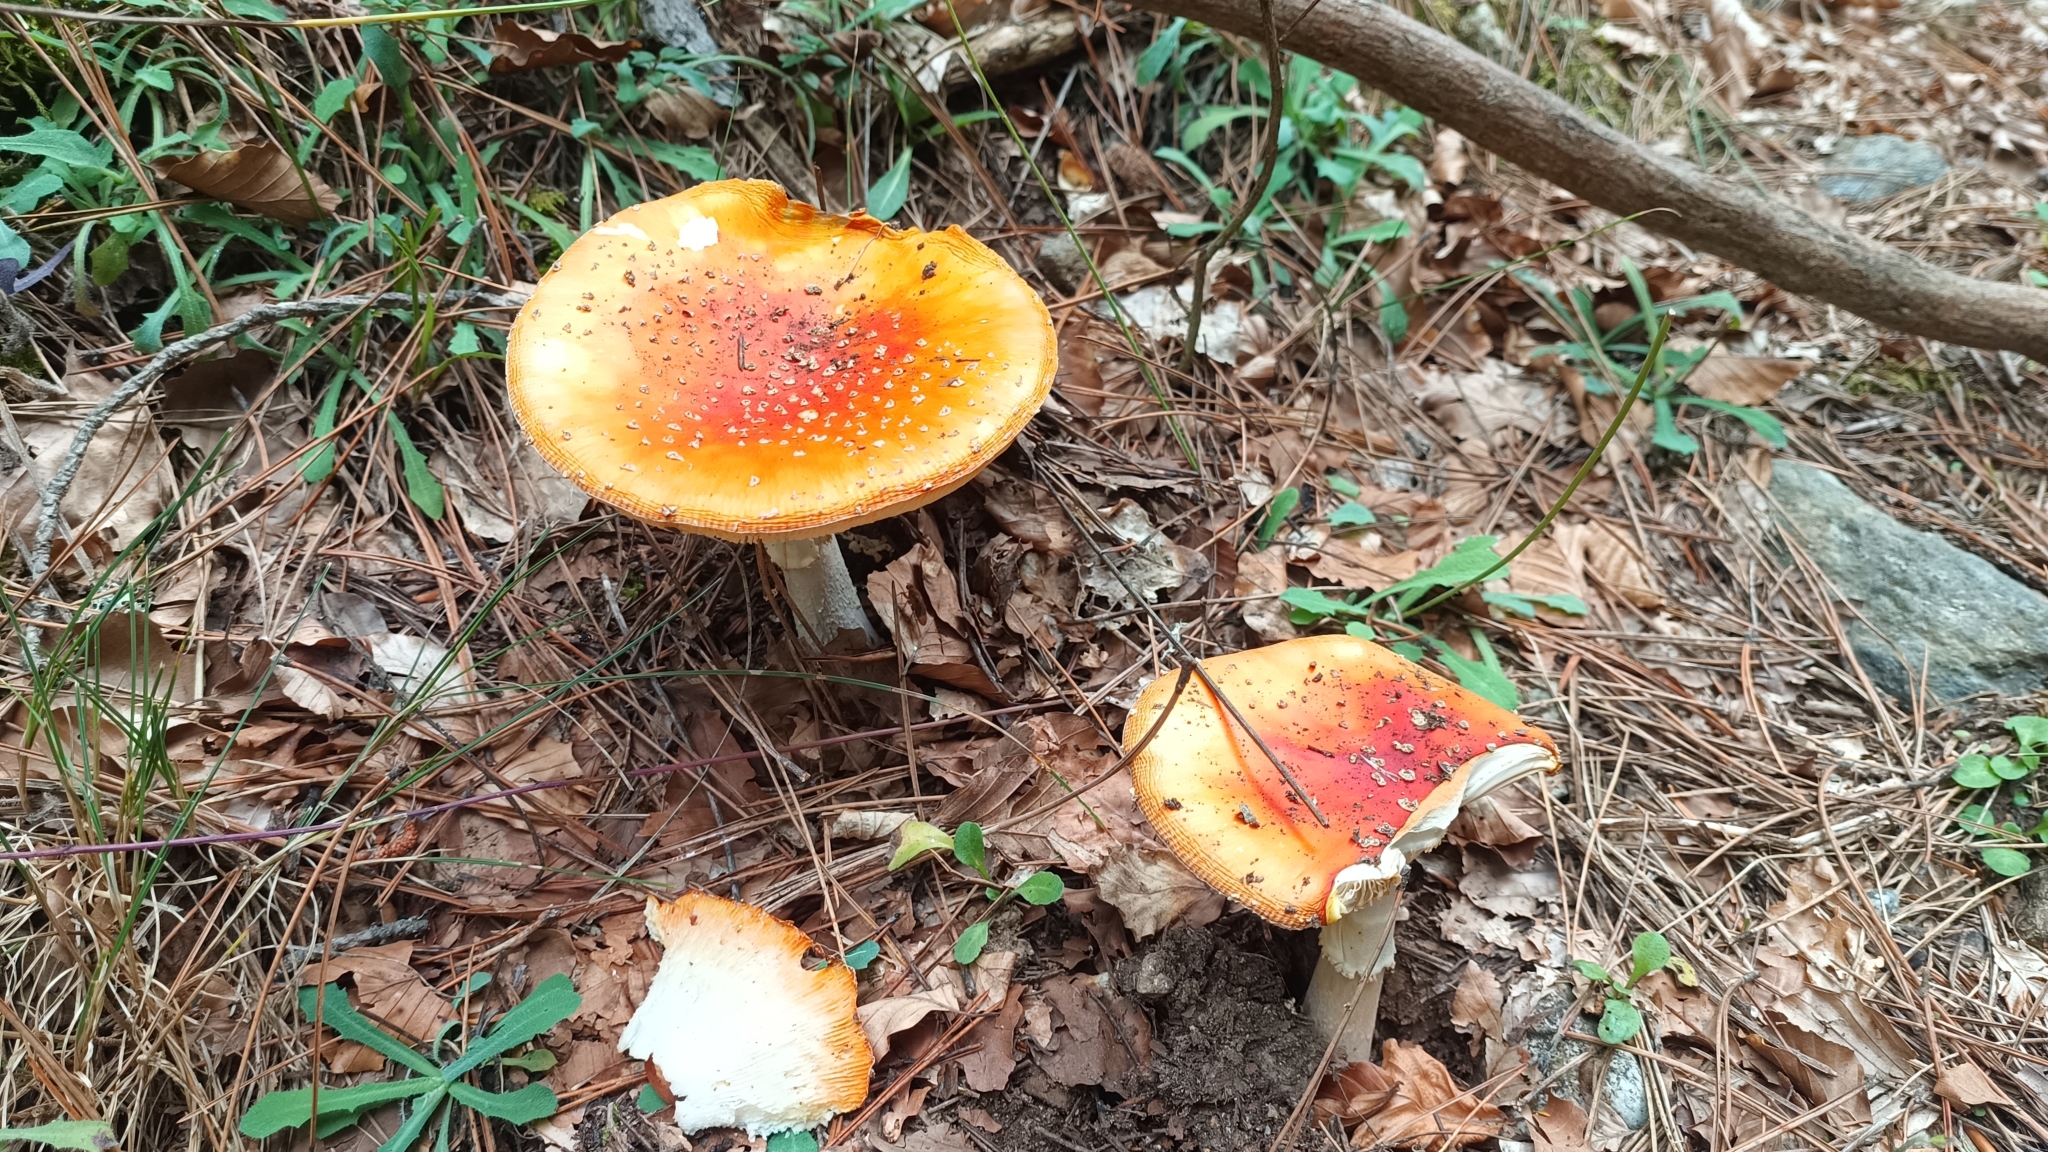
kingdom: Fungi
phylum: Basidiomycota
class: Agaricomycetes
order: Agaricales
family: Amanitaceae
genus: Amanita
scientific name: Amanita muscaria
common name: Fly agaric
